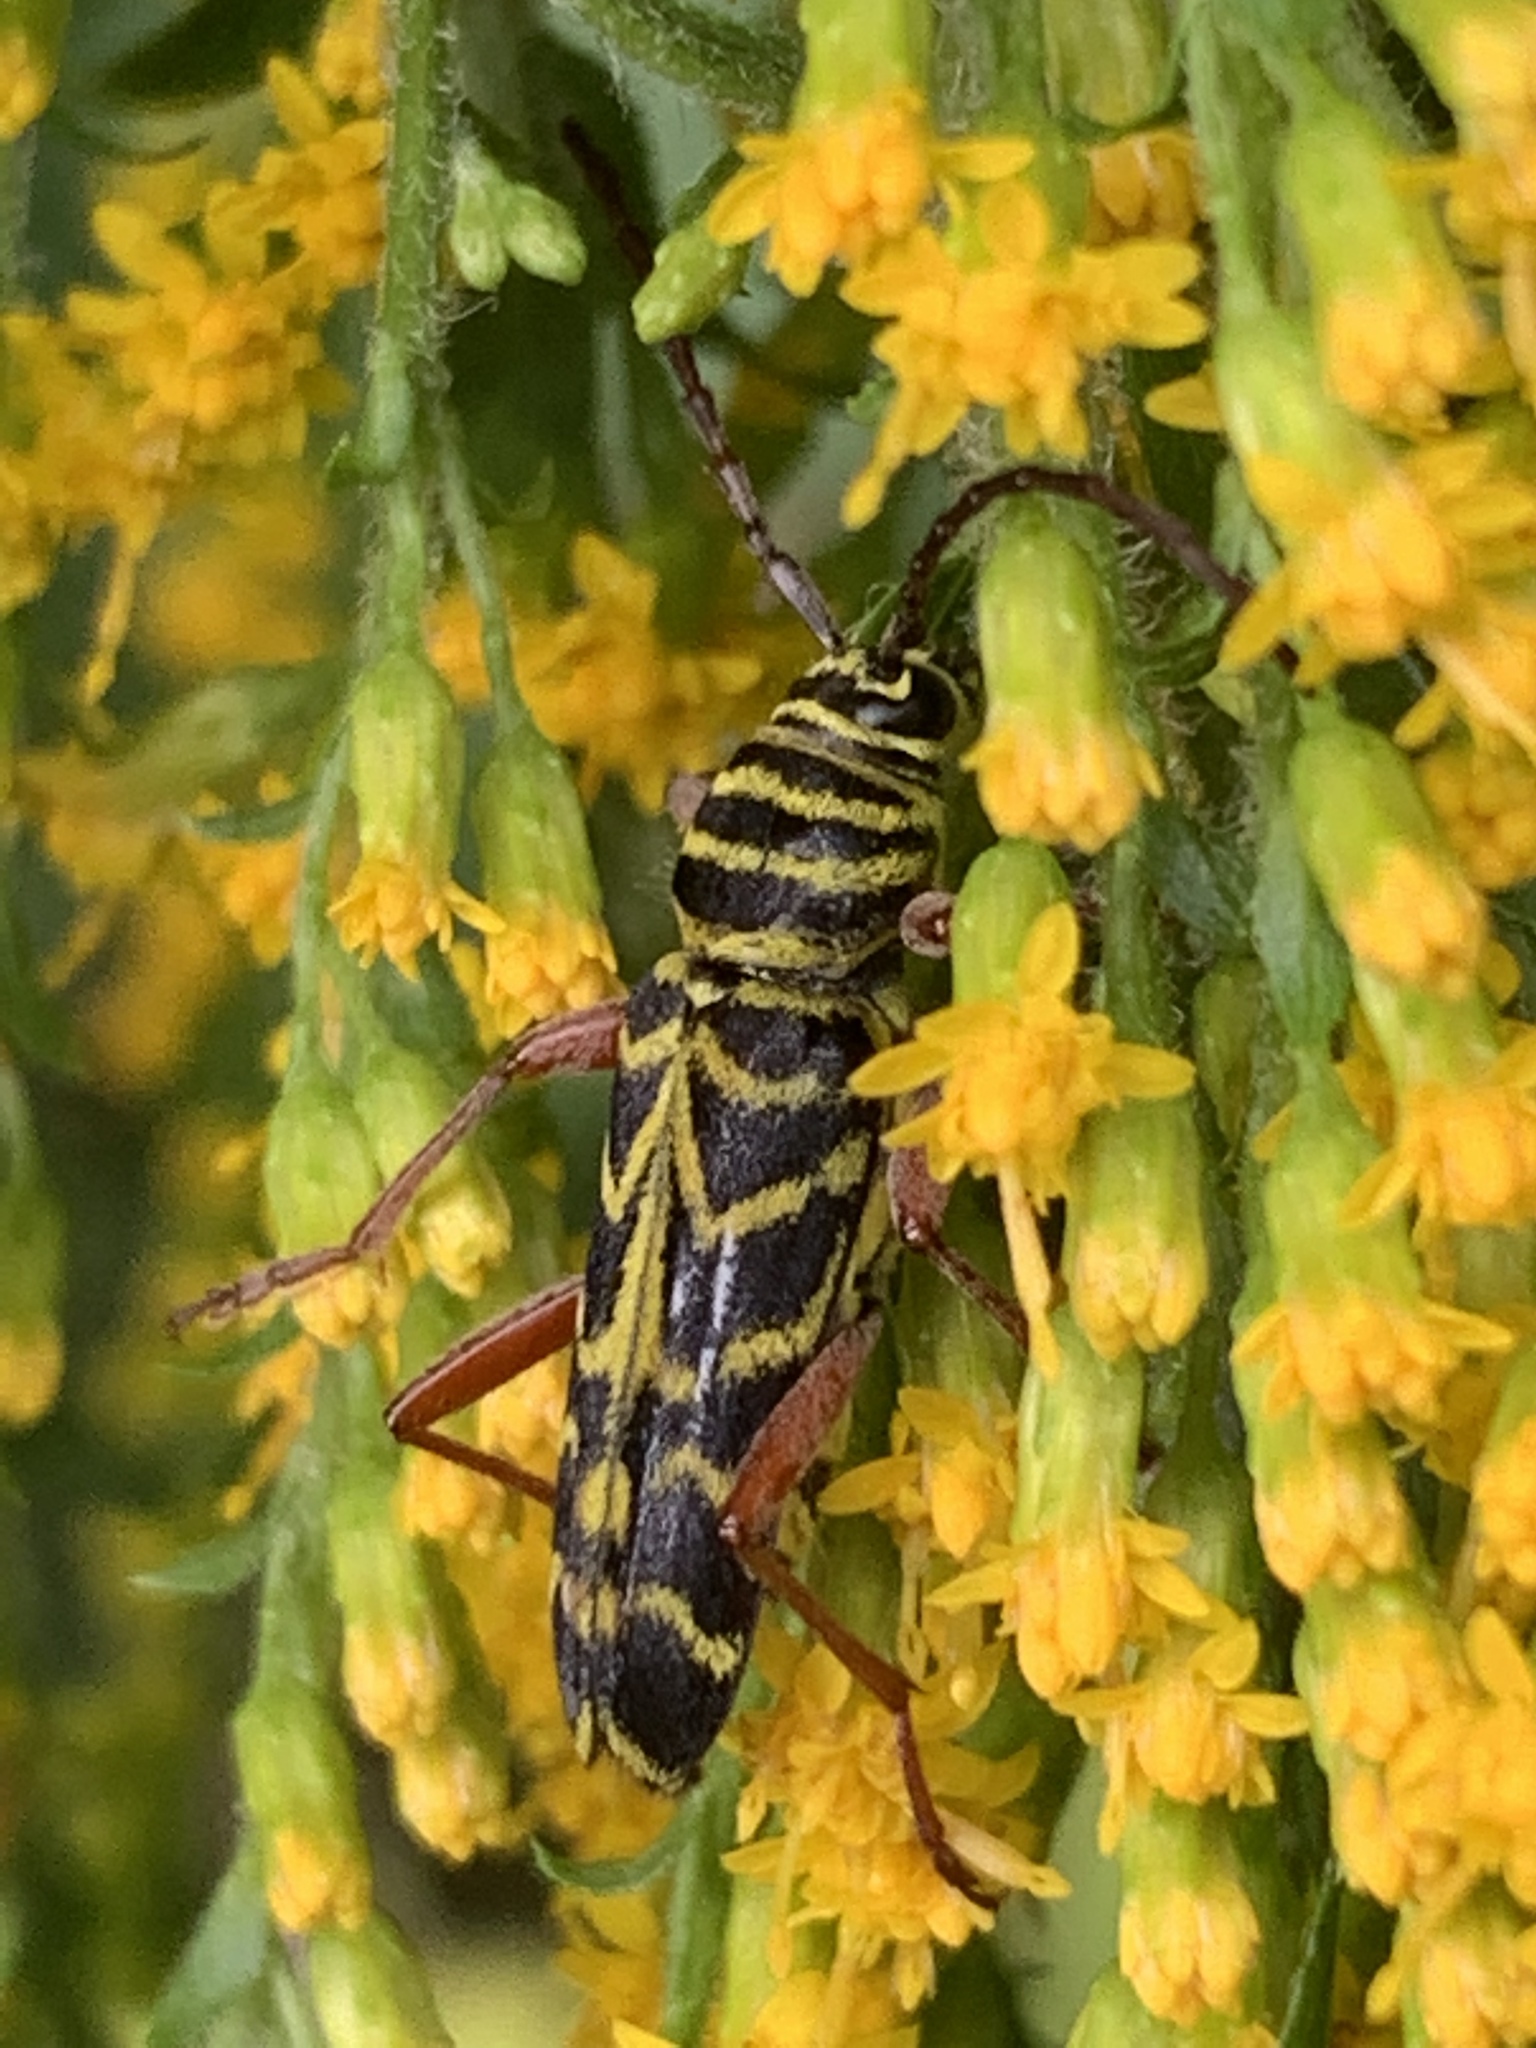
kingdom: Animalia
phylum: Arthropoda
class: Insecta
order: Coleoptera
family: Cerambycidae
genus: Megacyllene
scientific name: Megacyllene robiniae
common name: Locust borer
